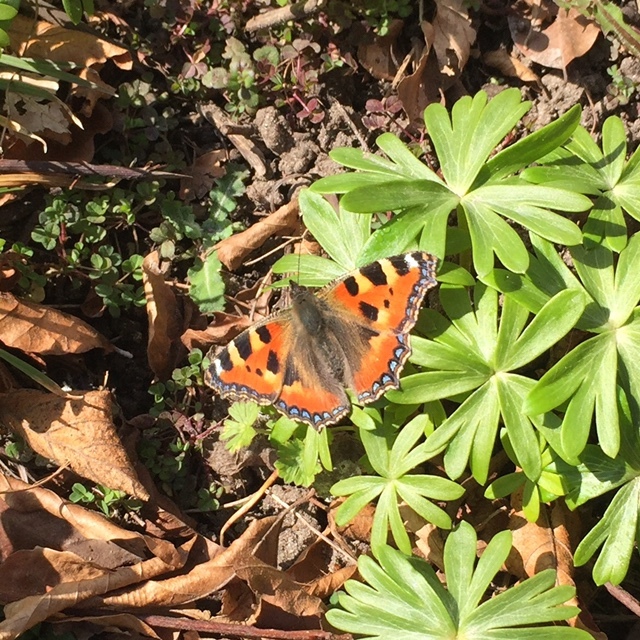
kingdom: Animalia
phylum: Arthropoda
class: Insecta
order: Lepidoptera
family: Nymphalidae
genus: Aglais
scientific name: Aglais urticae
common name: Small tortoiseshell
